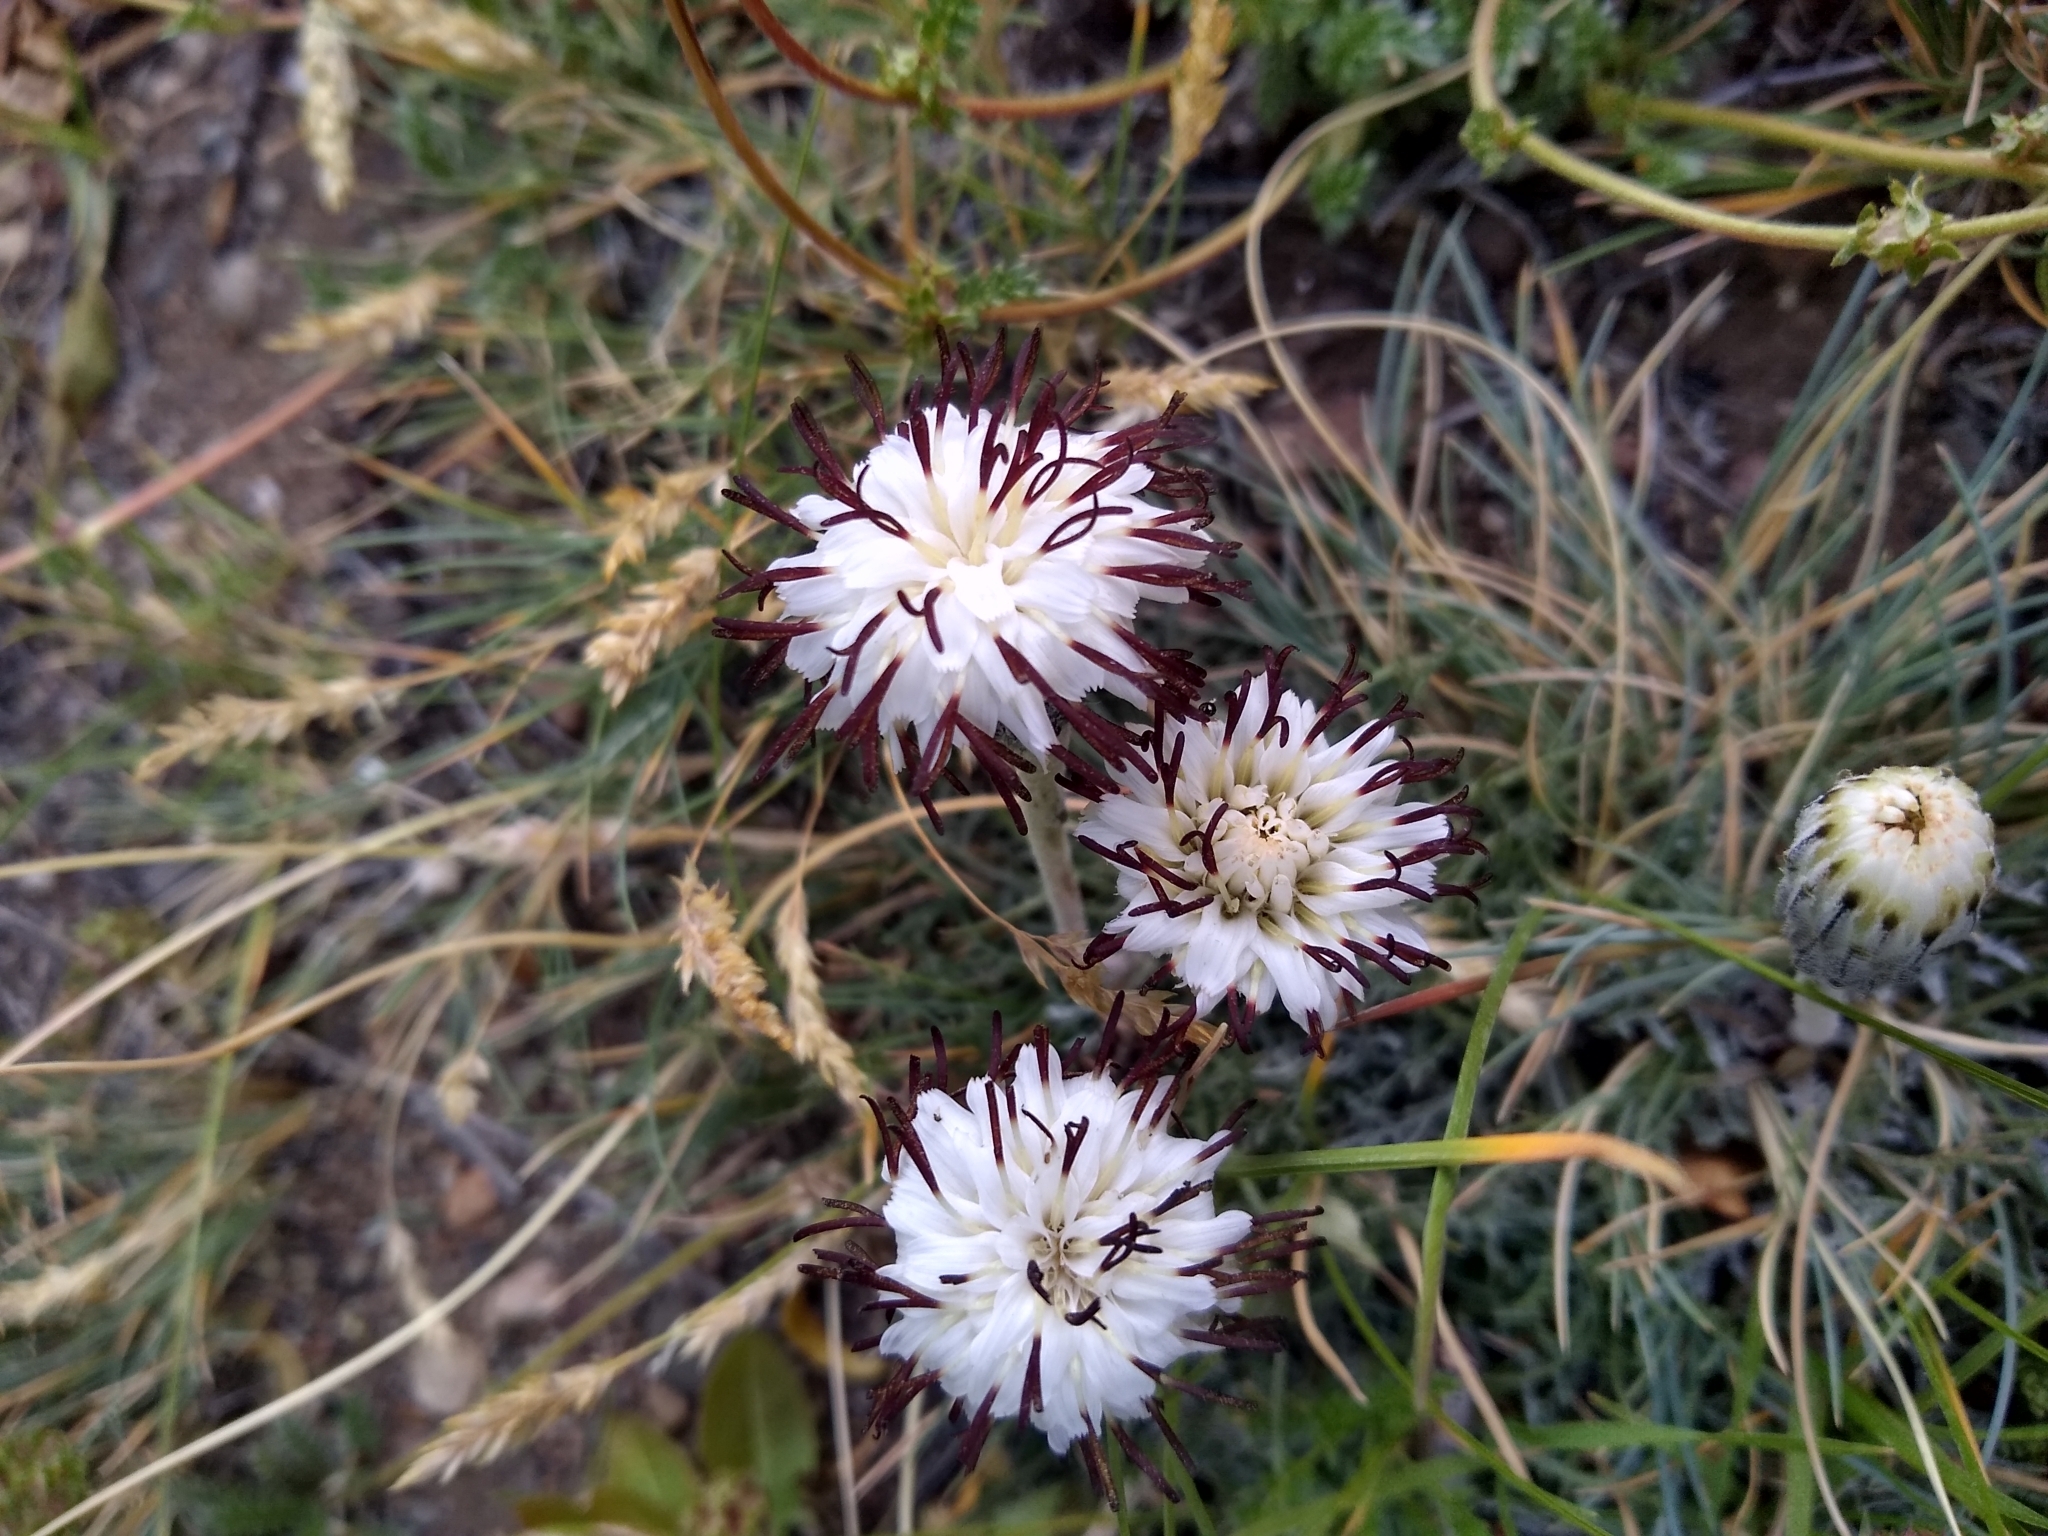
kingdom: Plantae
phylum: Tracheophyta
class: Magnoliopsida
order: Asterales
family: Asteraceae
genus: Hypochaeris
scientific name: Hypochaeris incana
